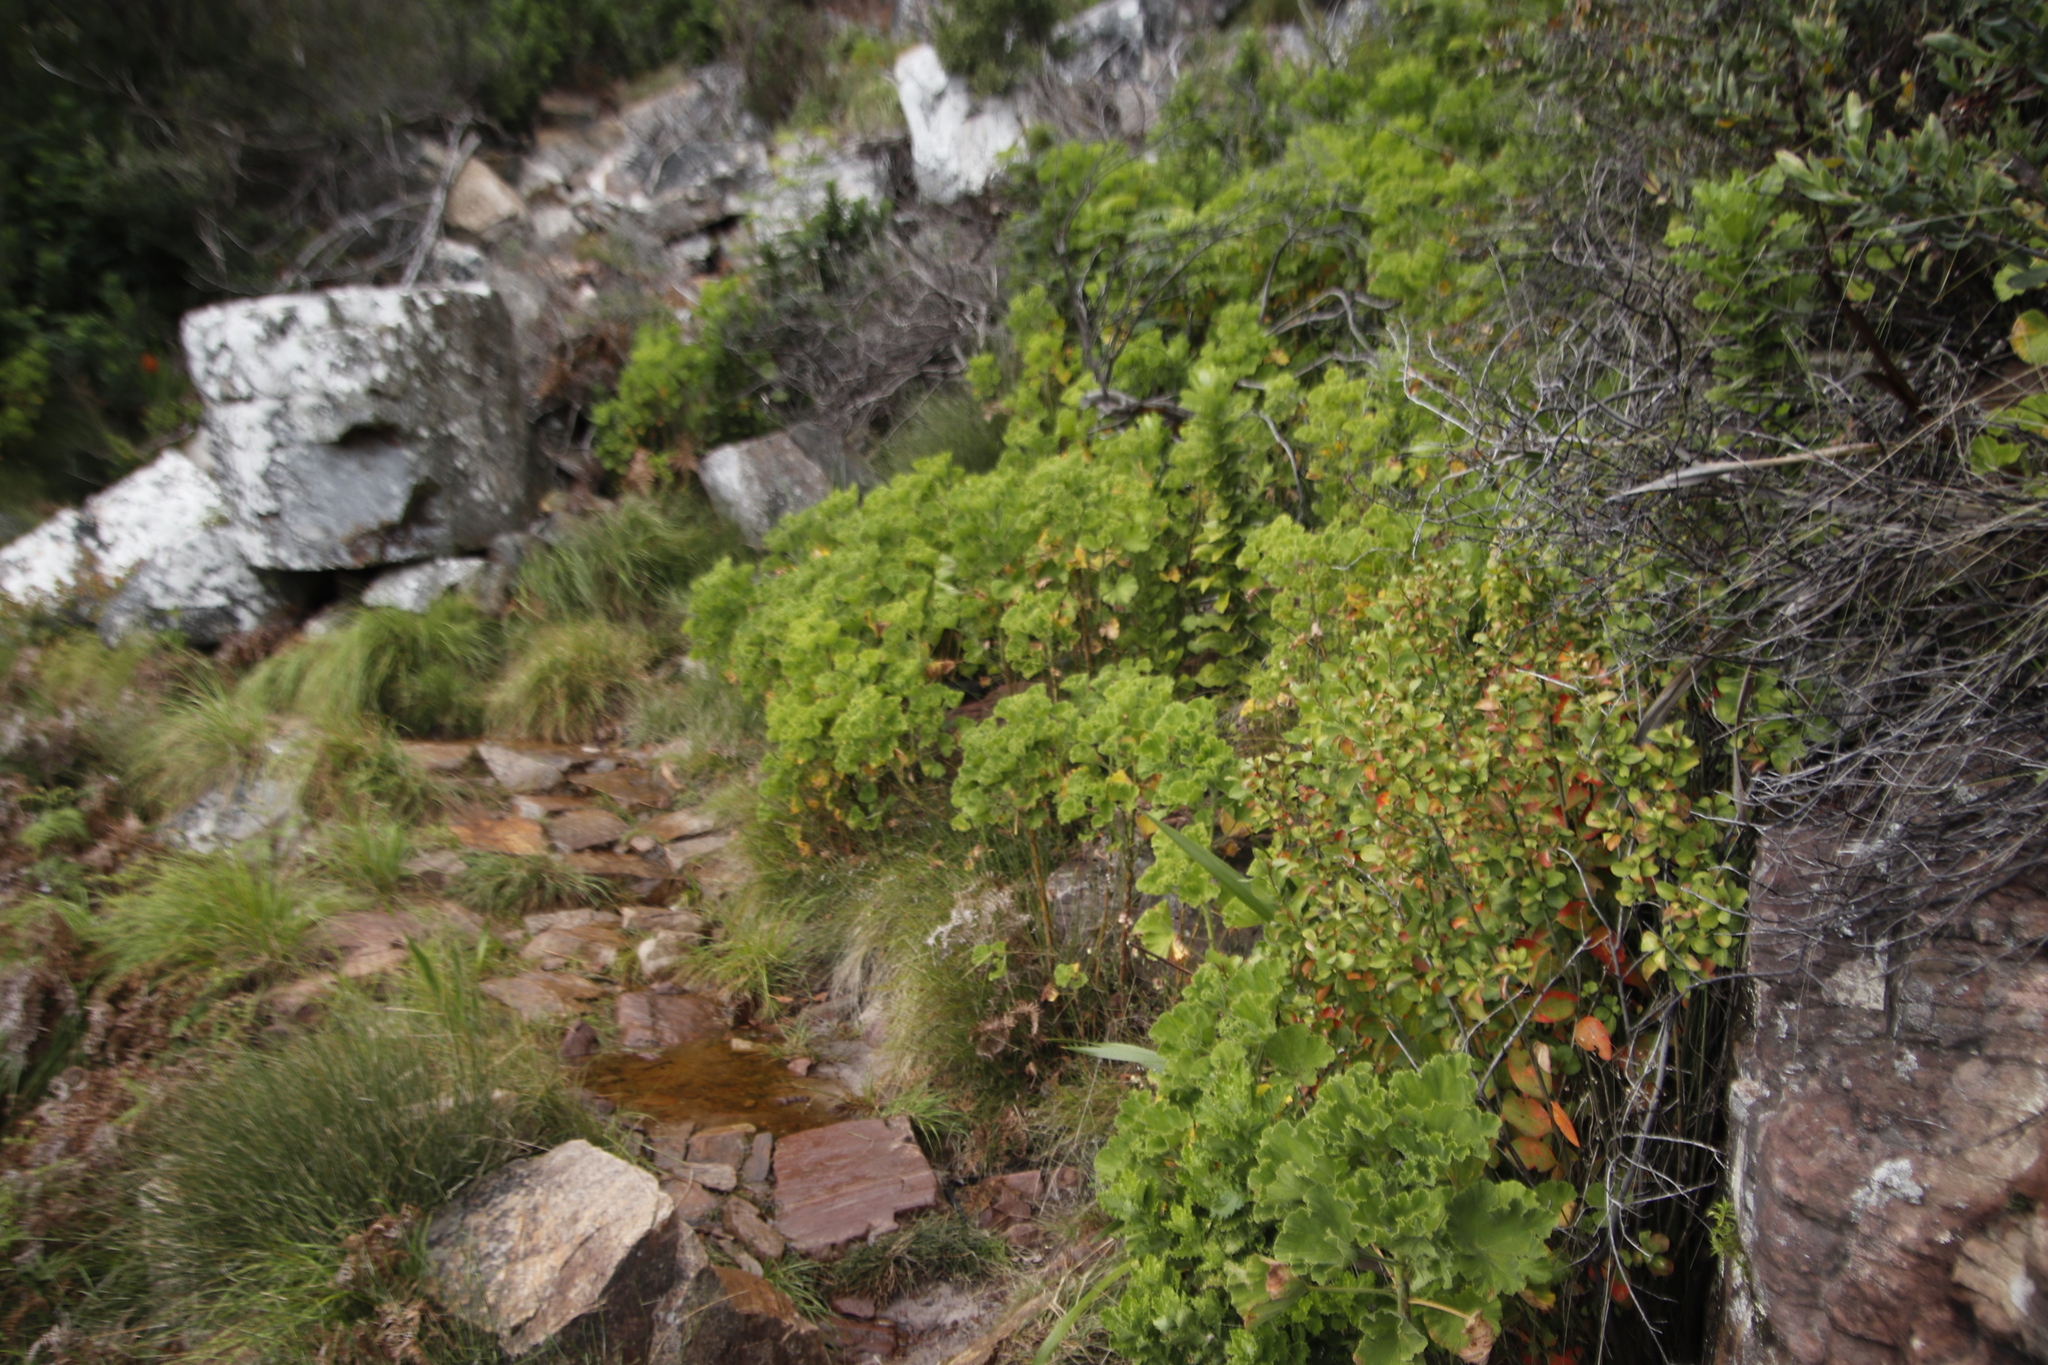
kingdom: Plantae
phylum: Tracheophyta
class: Magnoliopsida
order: Geraniales
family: Geraniaceae
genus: Pelargonium
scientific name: Pelargonium cucullatum
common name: Tree pelargonium
